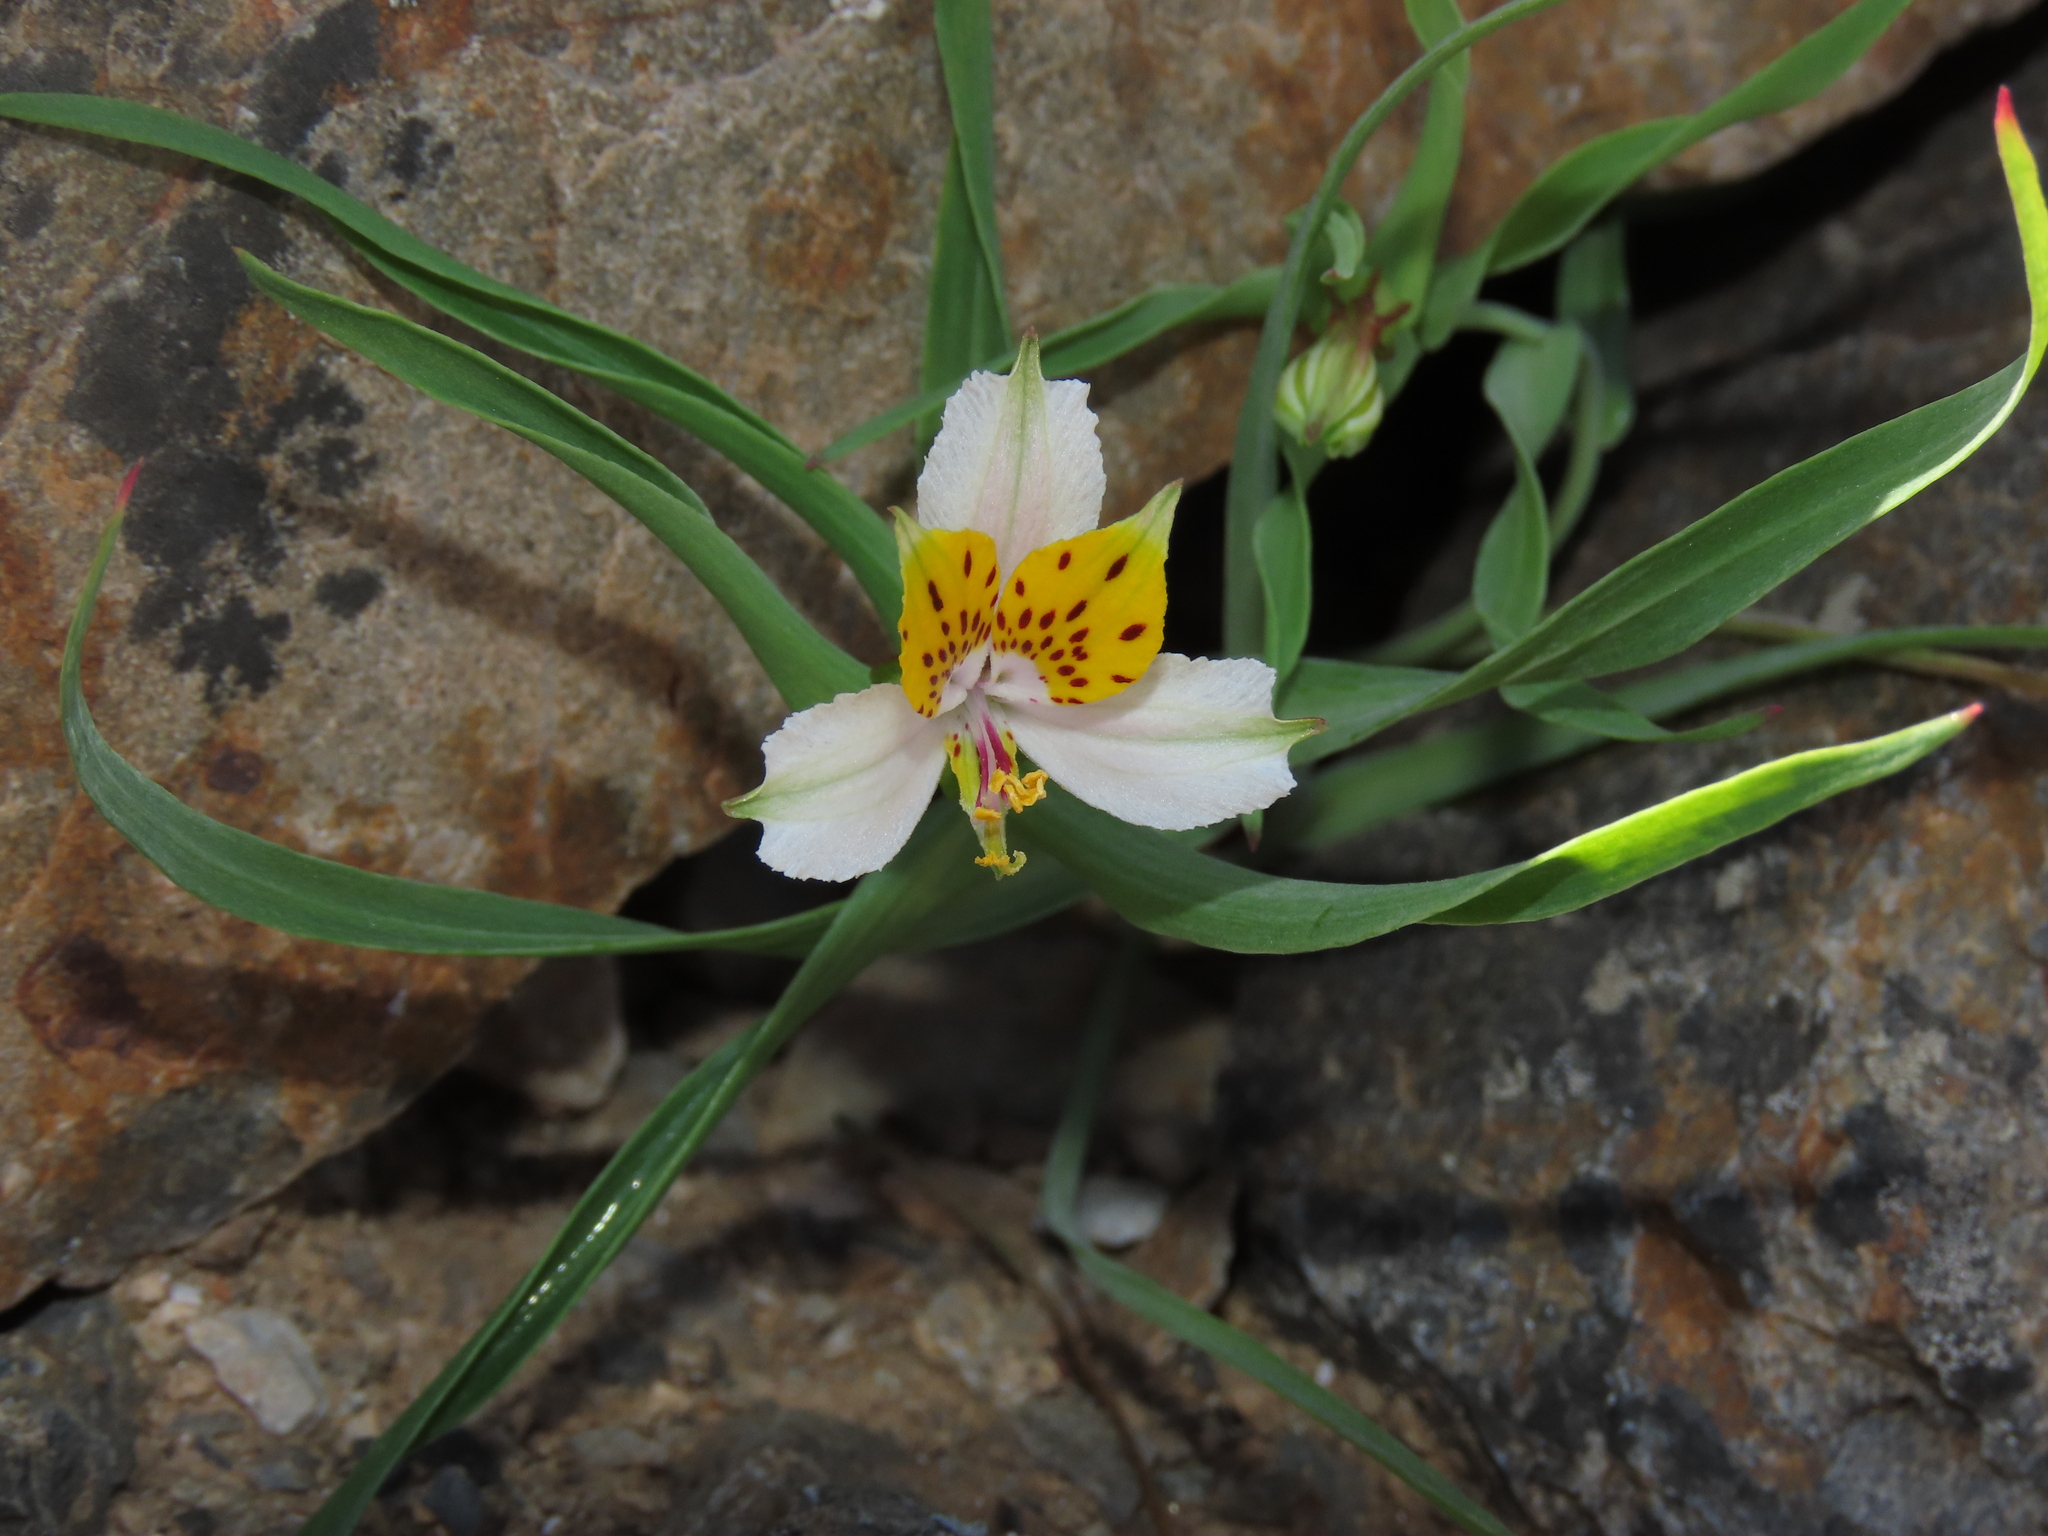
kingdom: Plantae
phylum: Tracheophyta
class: Liliopsida
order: Liliales
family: Alstroemeriaceae
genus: Alstroemeria
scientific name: Alstroemeria graminea
